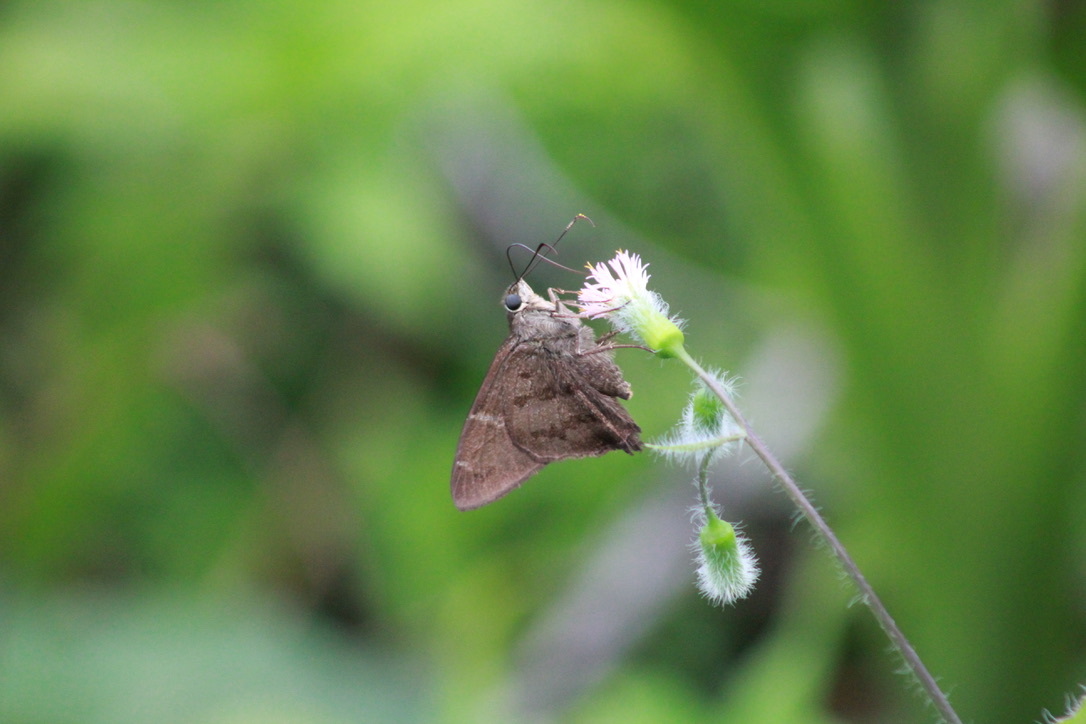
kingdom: Animalia
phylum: Arthropoda
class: Insecta
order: Lepidoptera
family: Hesperiidae
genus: Urbanus
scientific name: Urbanus simplicius
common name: Plain longtail
